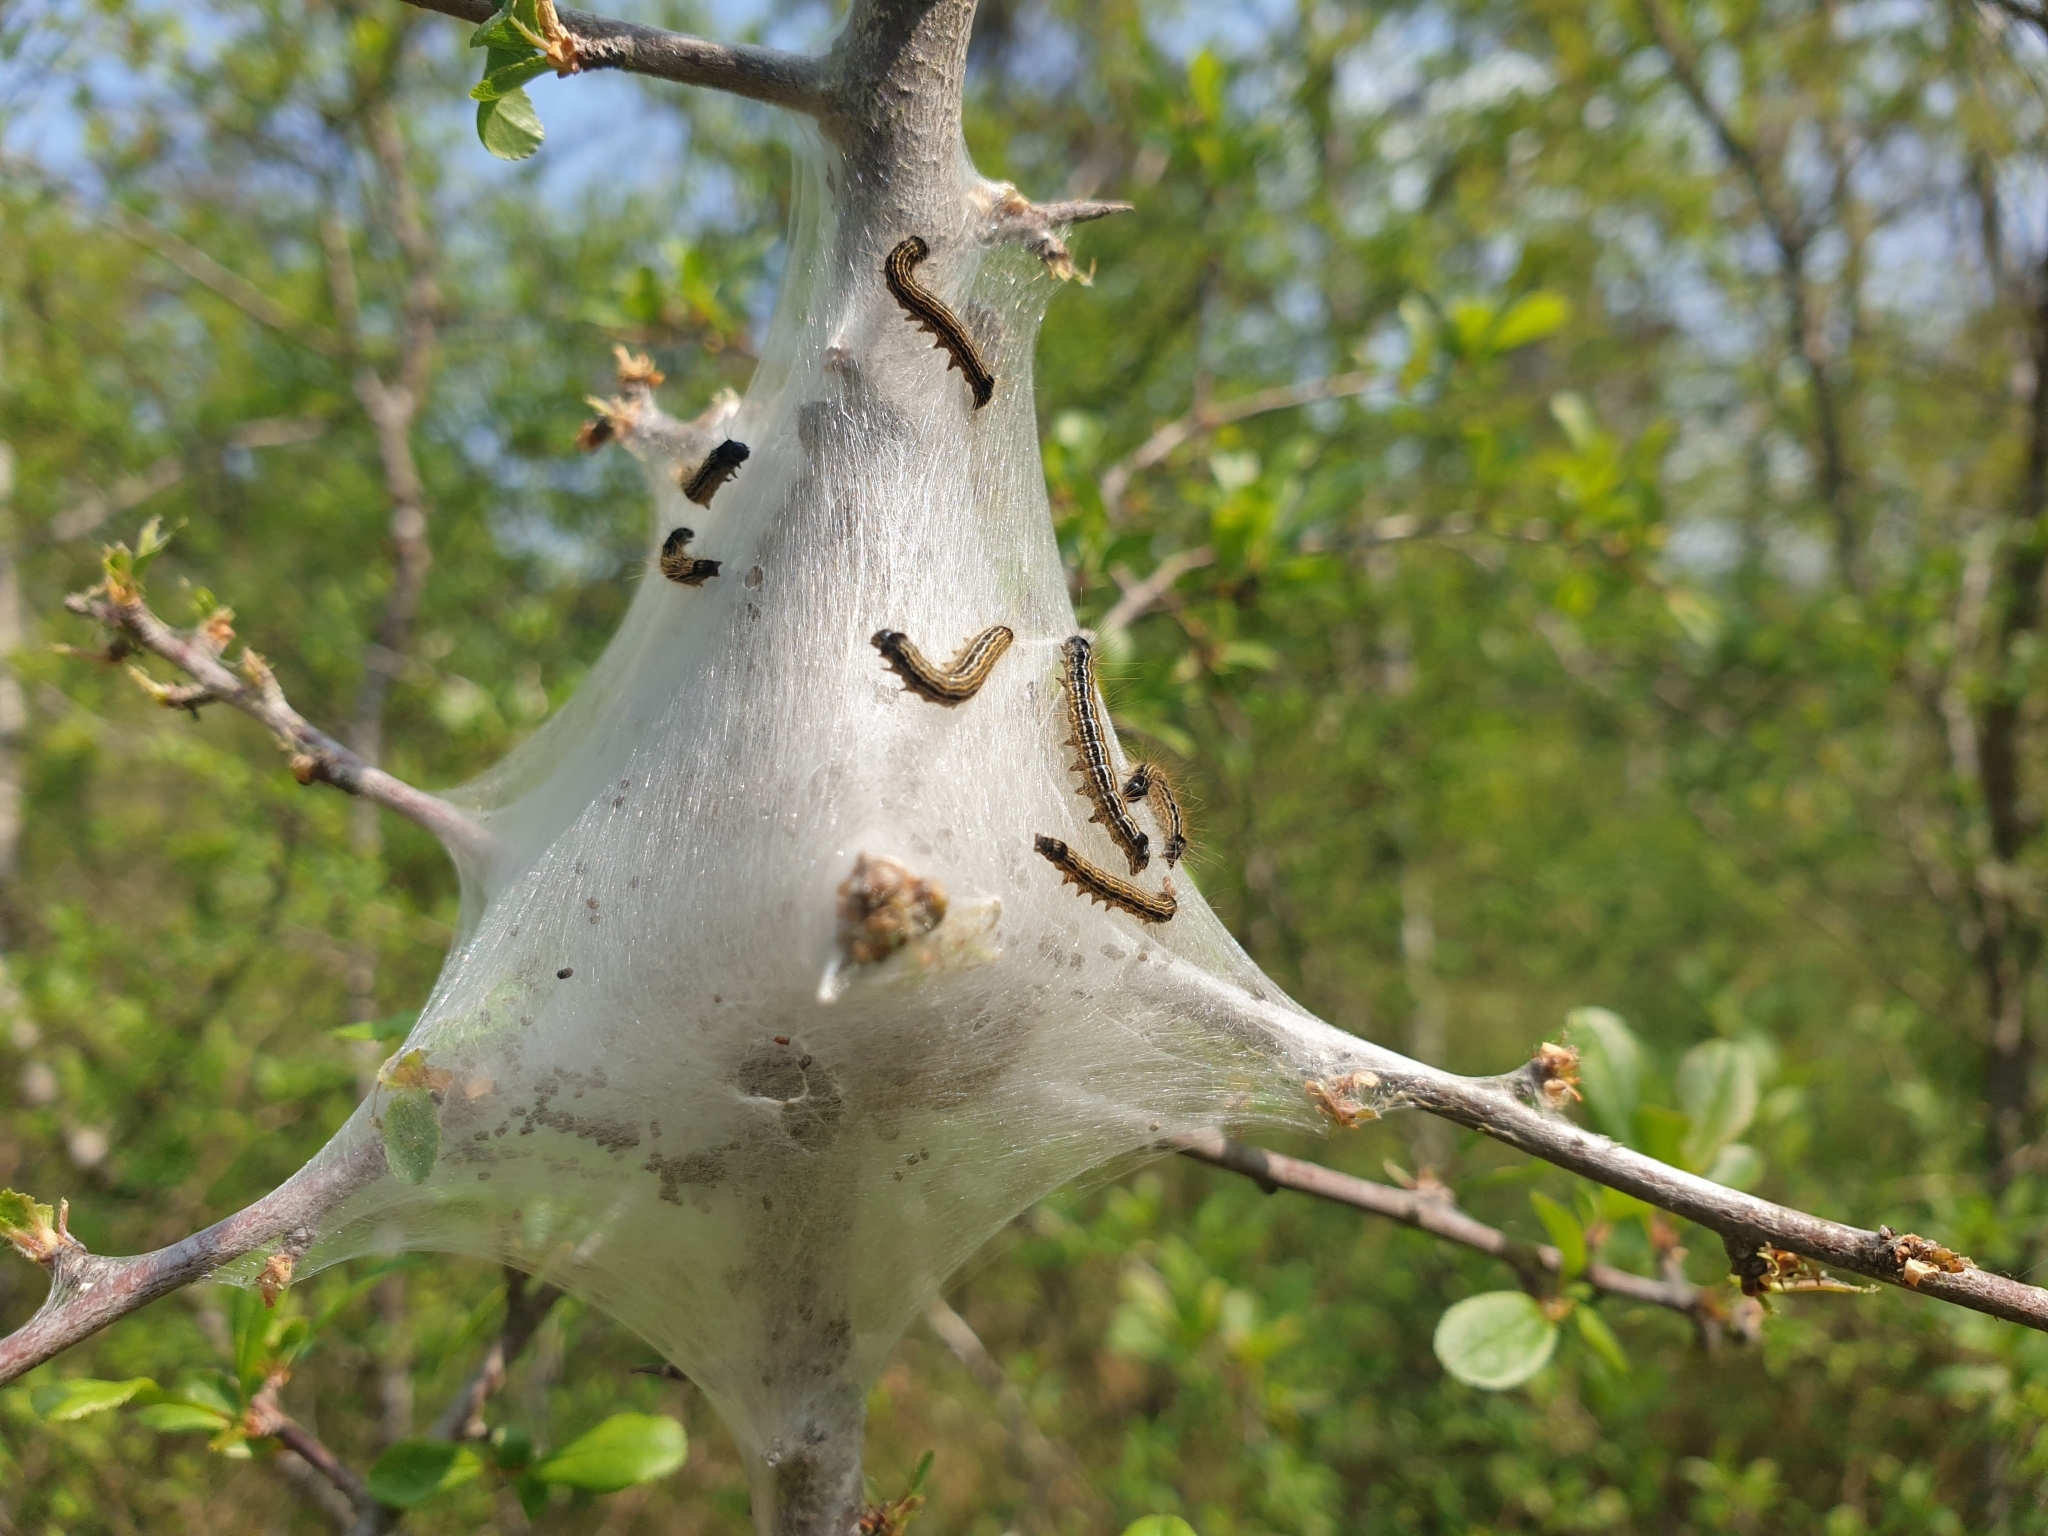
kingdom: Animalia
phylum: Arthropoda
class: Insecta
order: Lepidoptera
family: Lasiocampidae
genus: Malacosoma
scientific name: Malacosoma neustria
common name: The lackey
